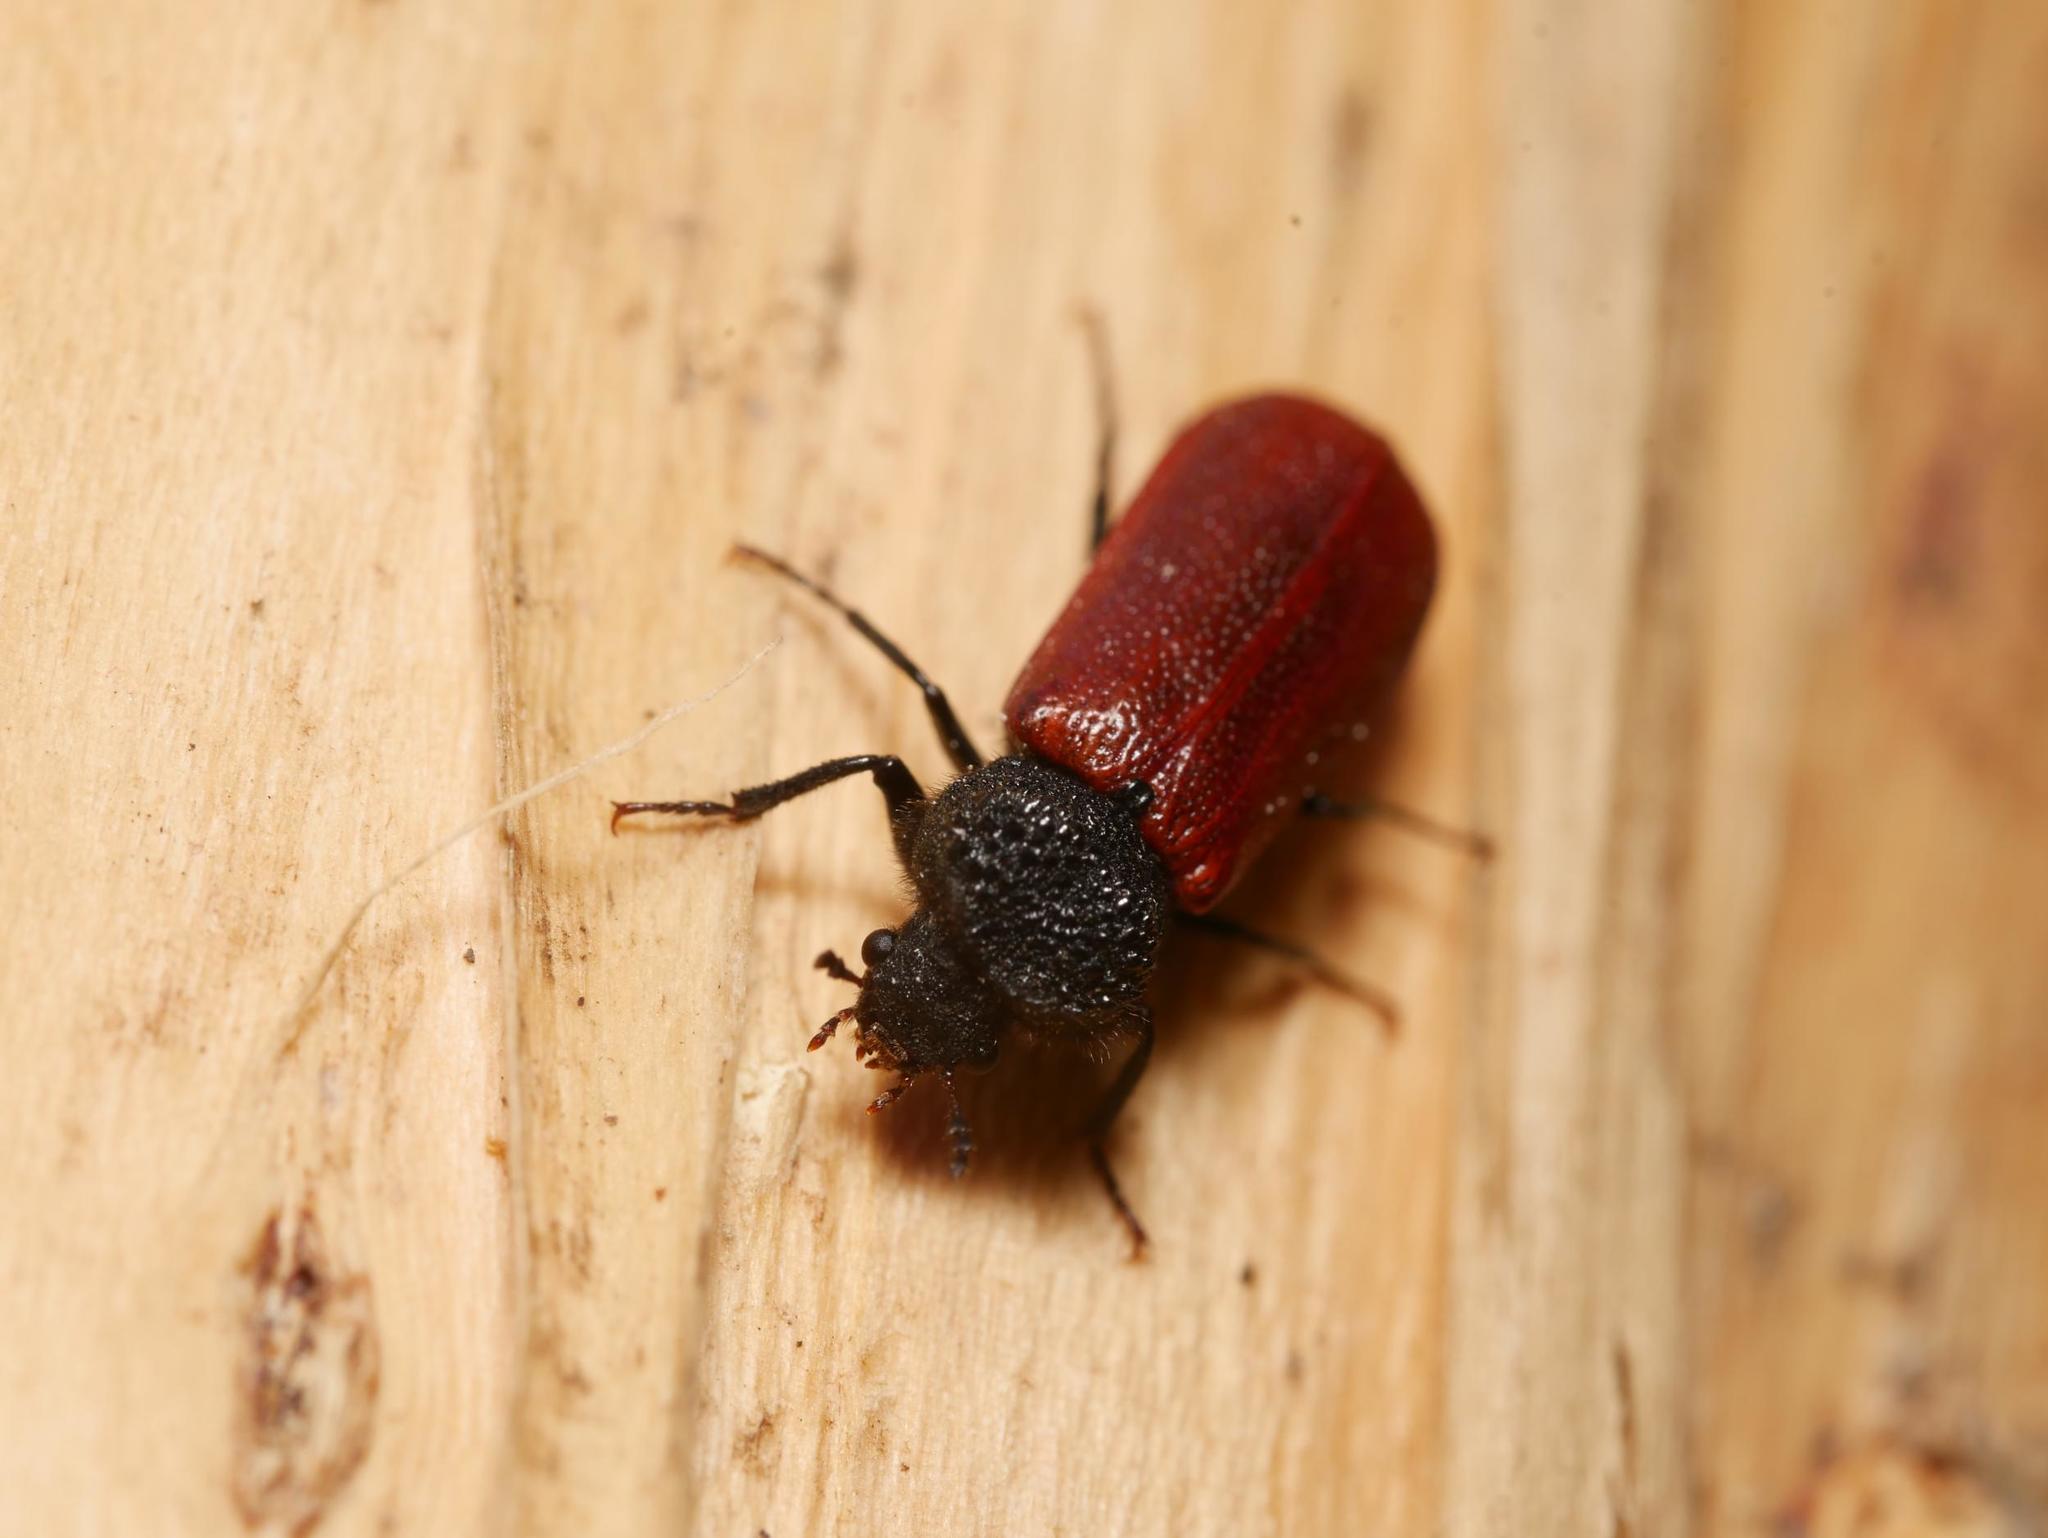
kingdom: Animalia
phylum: Arthropoda
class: Insecta
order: Coleoptera
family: Bostrichidae
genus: Bostrichus
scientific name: Bostrichus capucinus
